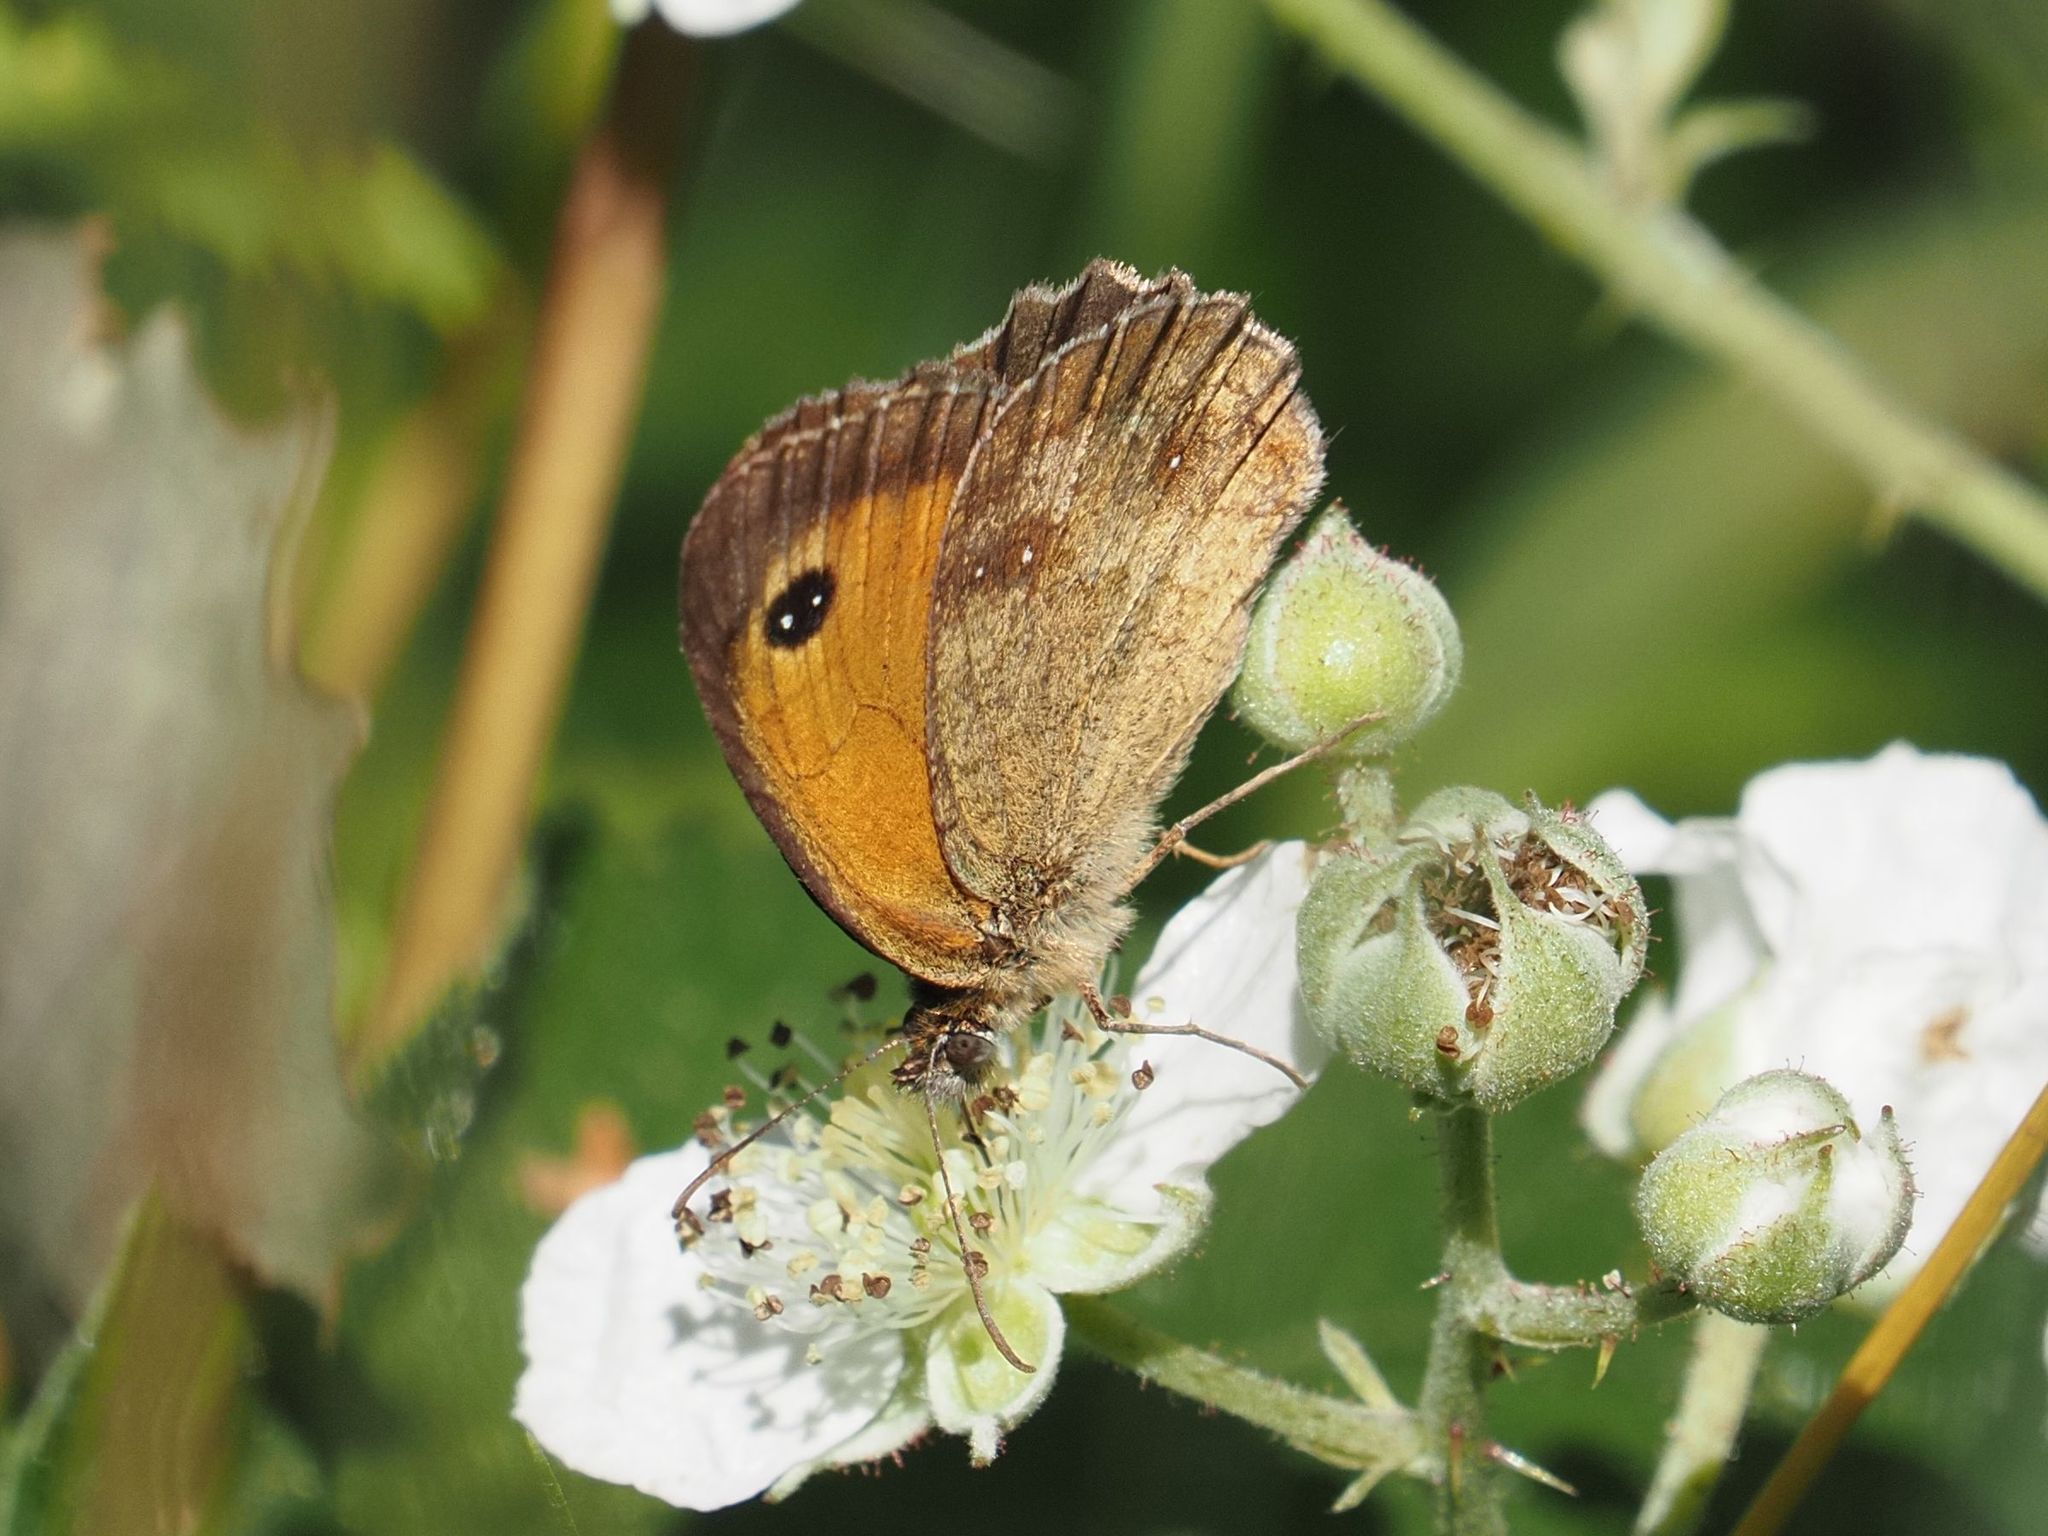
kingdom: Animalia
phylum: Arthropoda
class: Insecta
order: Lepidoptera
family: Nymphalidae
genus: Pyronia
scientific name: Pyronia tithonus
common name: Gatekeeper
